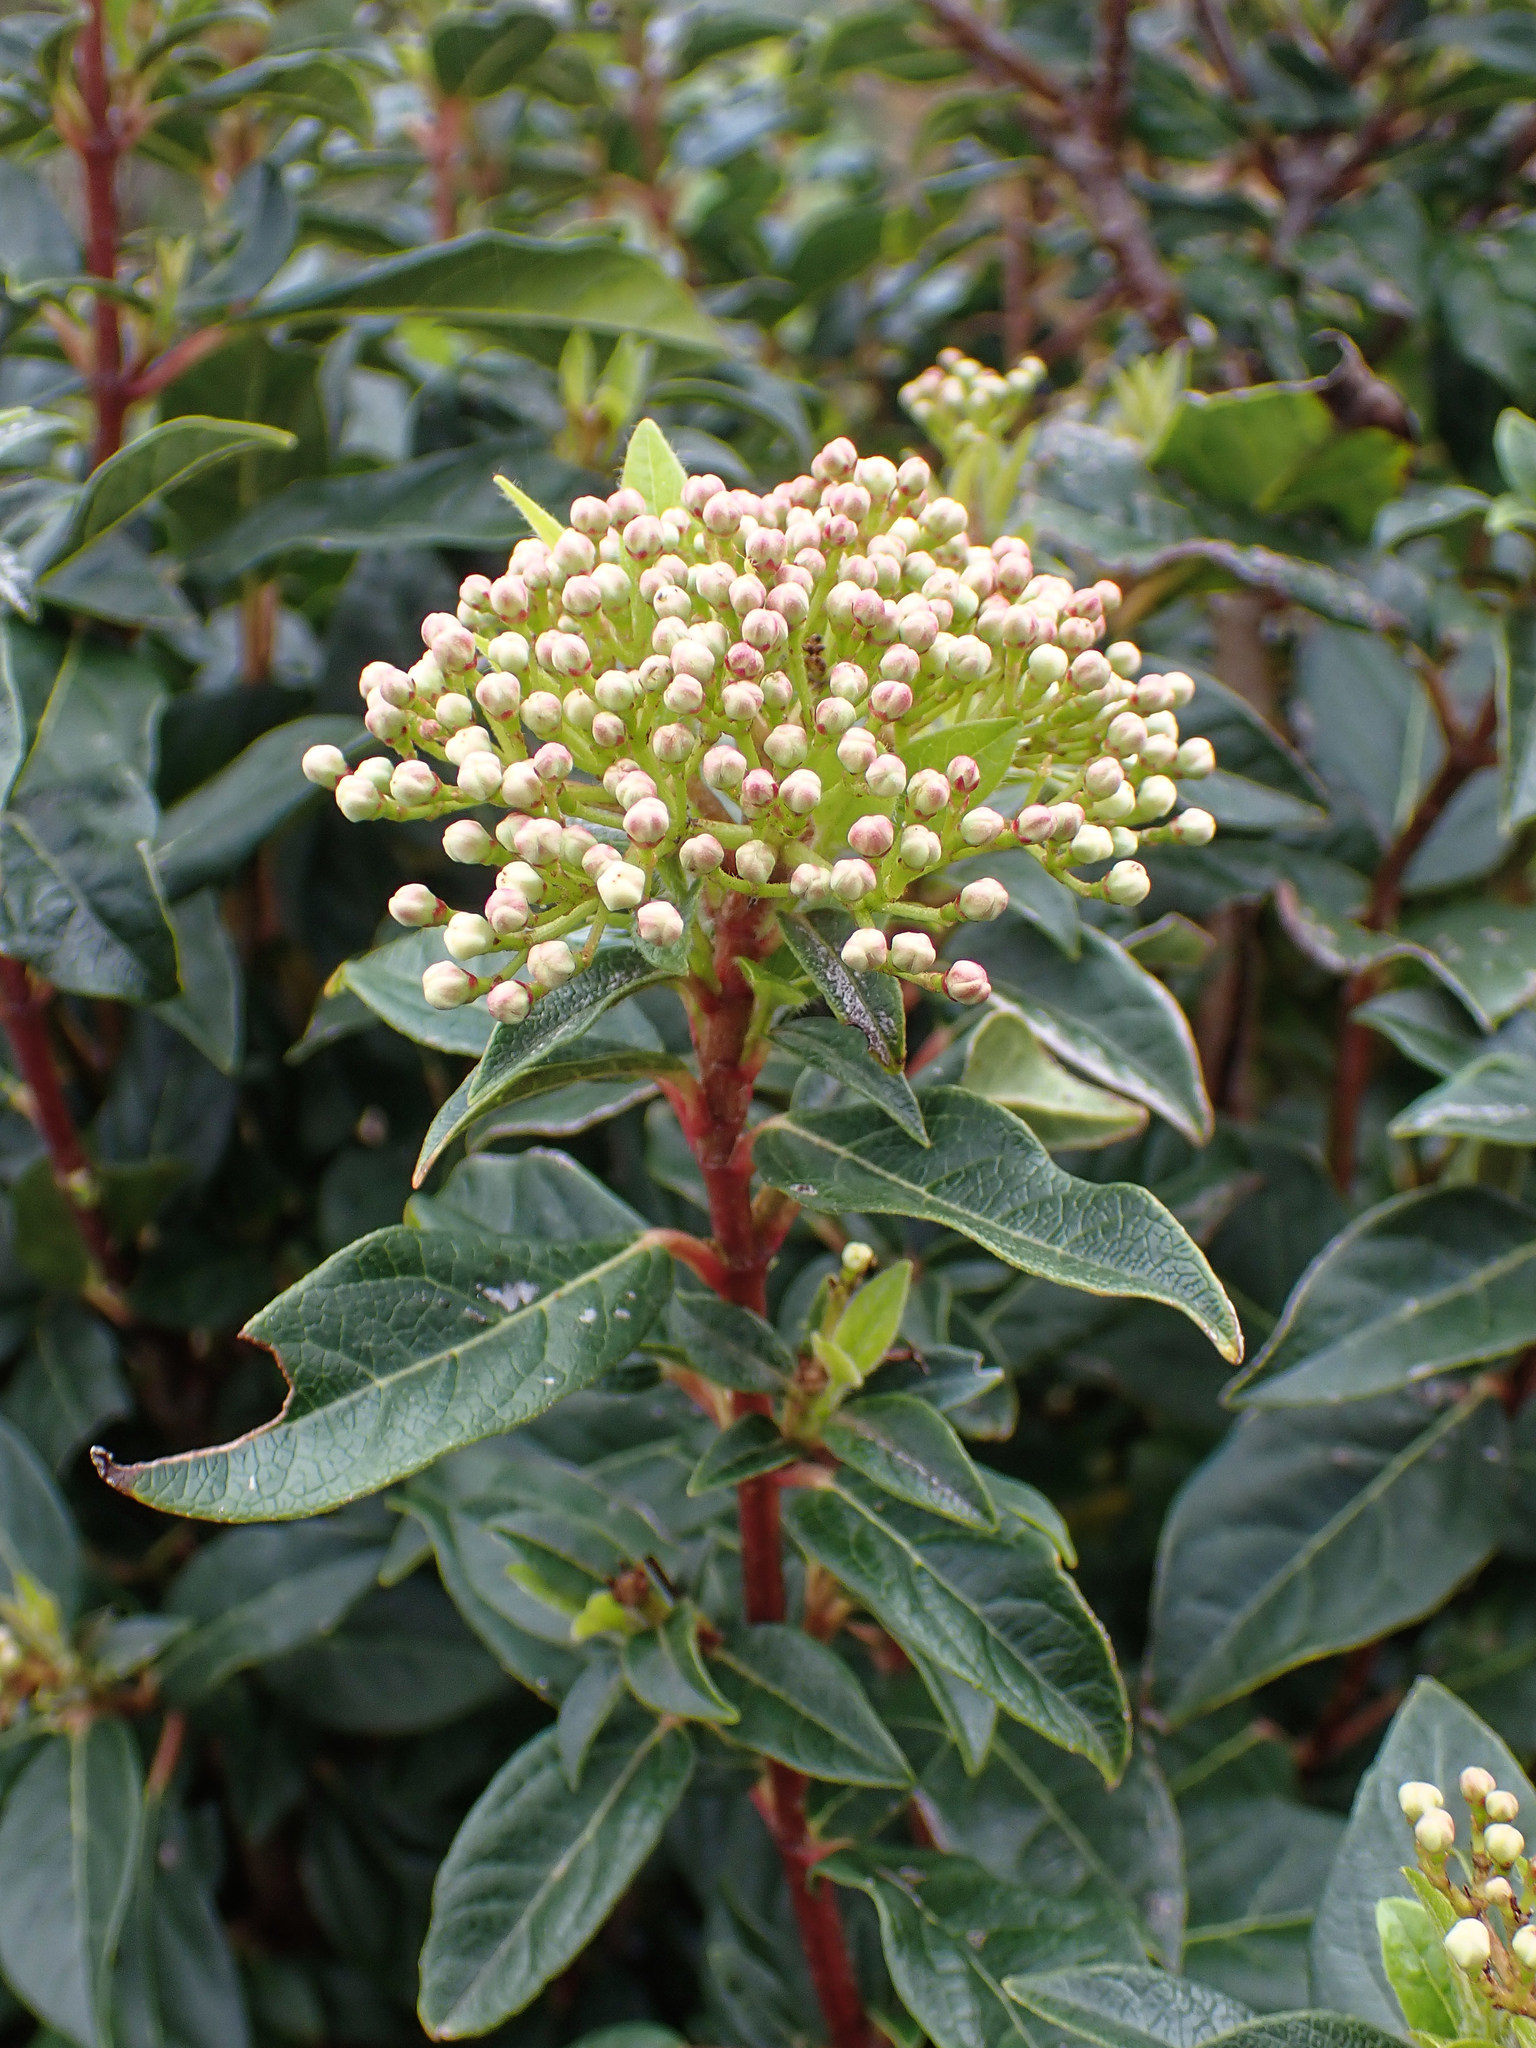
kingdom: Plantae
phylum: Tracheophyta
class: Magnoliopsida
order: Dipsacales
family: Viburnaceae
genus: Viburnum
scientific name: Viburnum tinus
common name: Laurustinus
